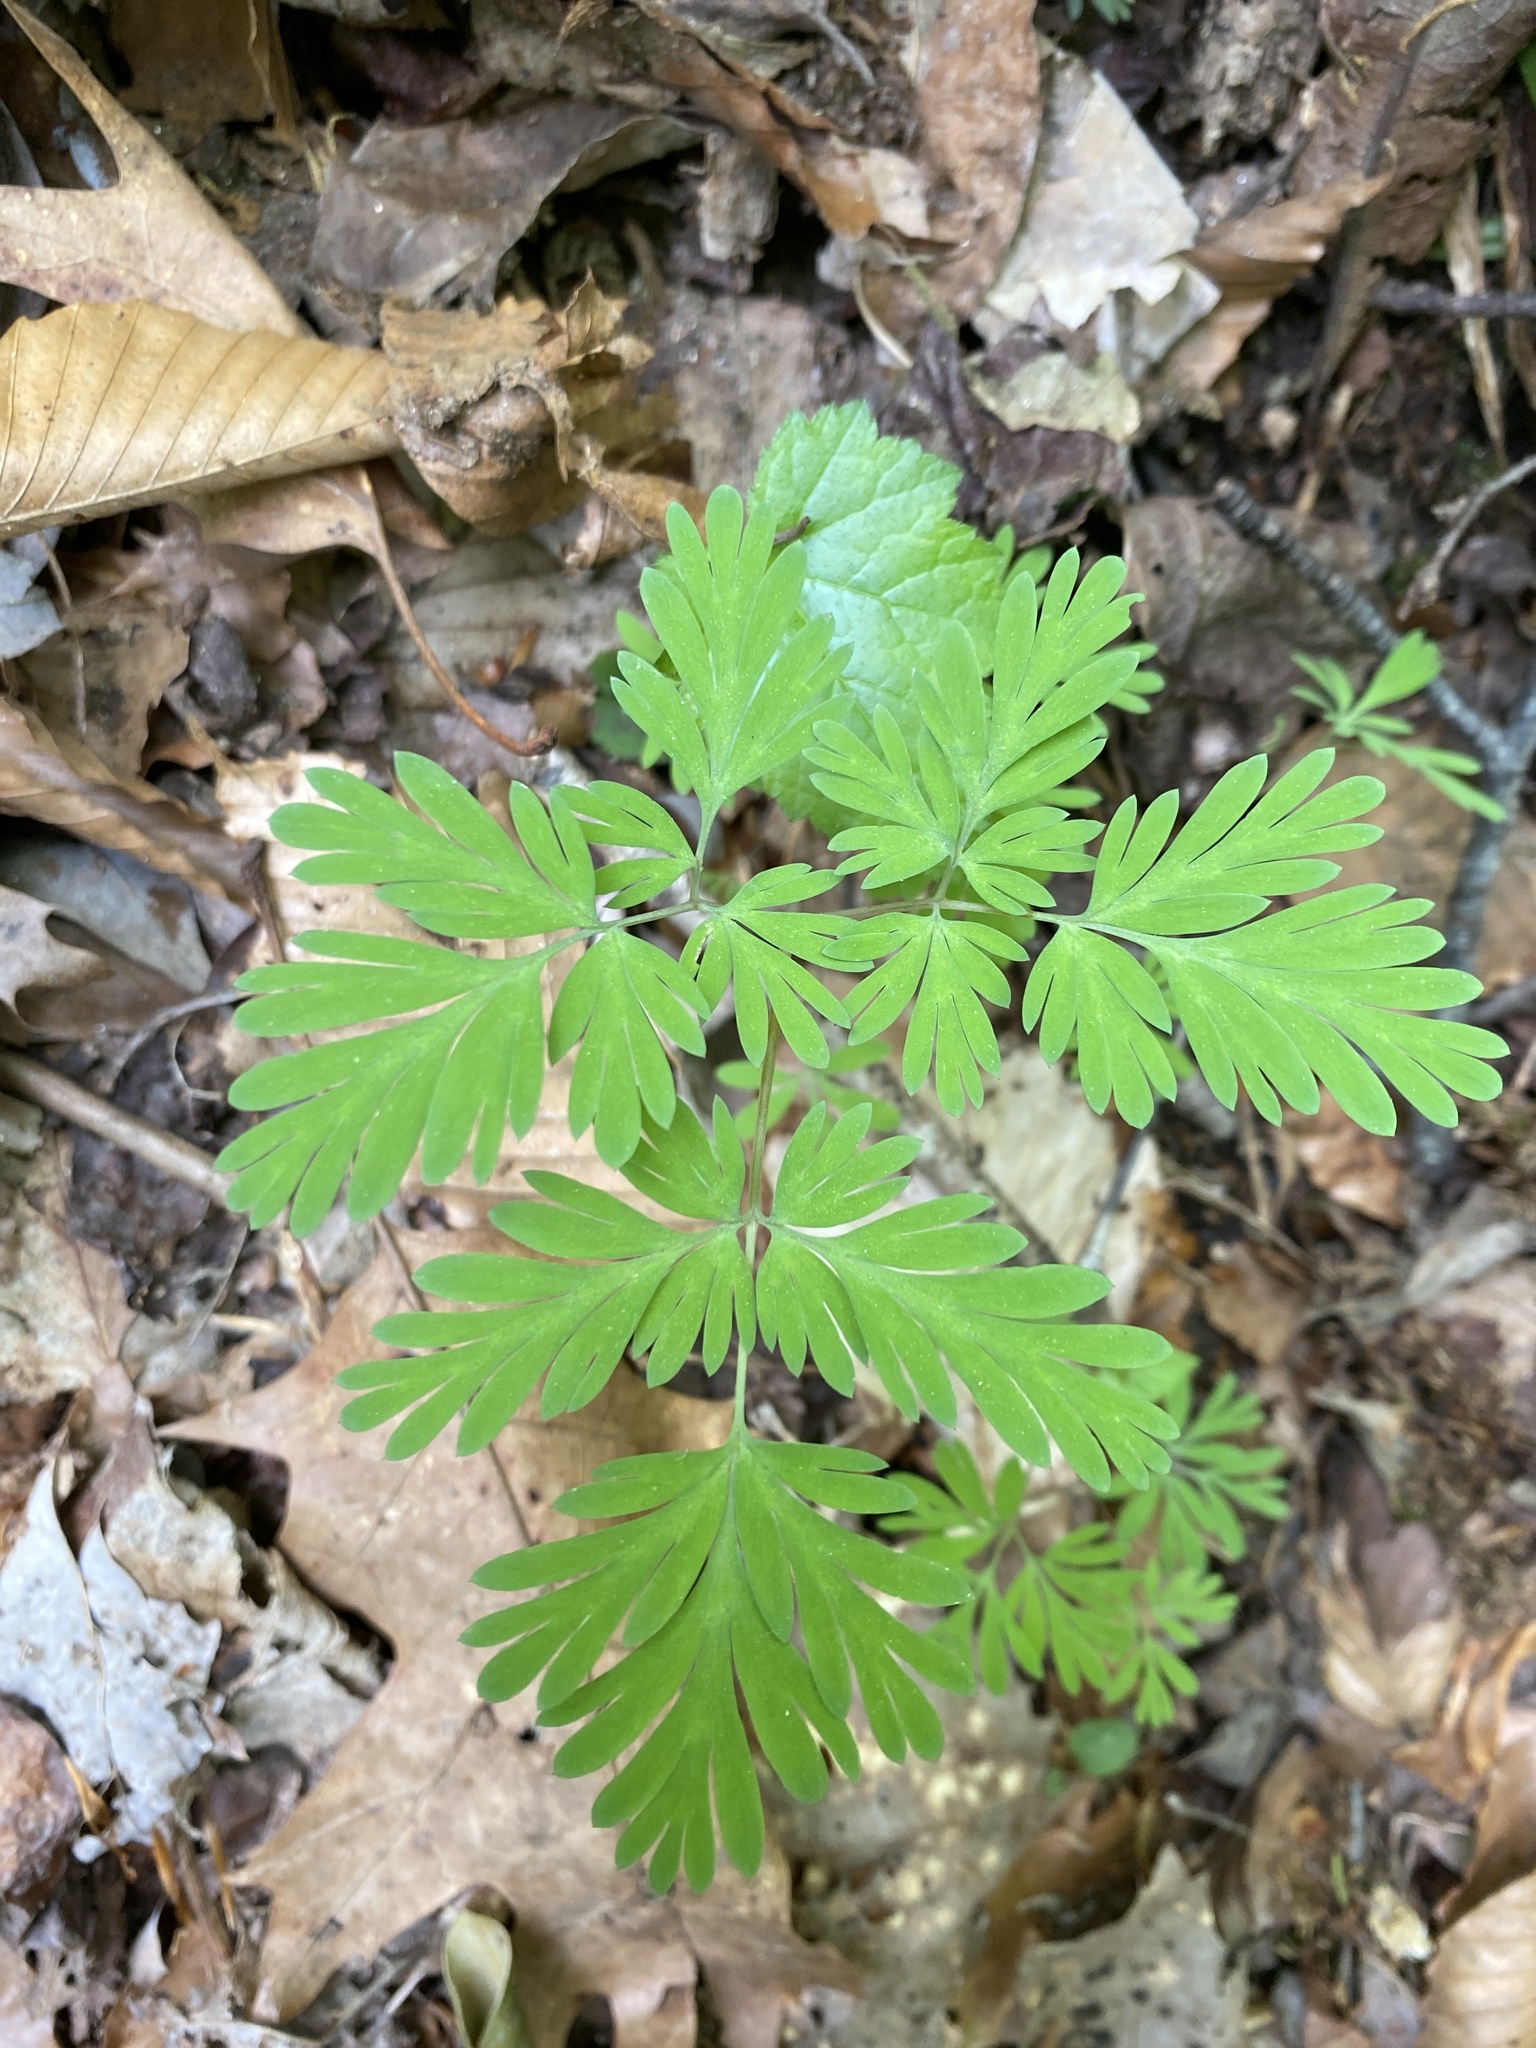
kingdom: Plantae
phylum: Tracheophyta
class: Magnoliopsida
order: Ranunculales
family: Papaveraceae
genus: Dicentra
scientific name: Dicentra cucullaria
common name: Dutchman's breeches
